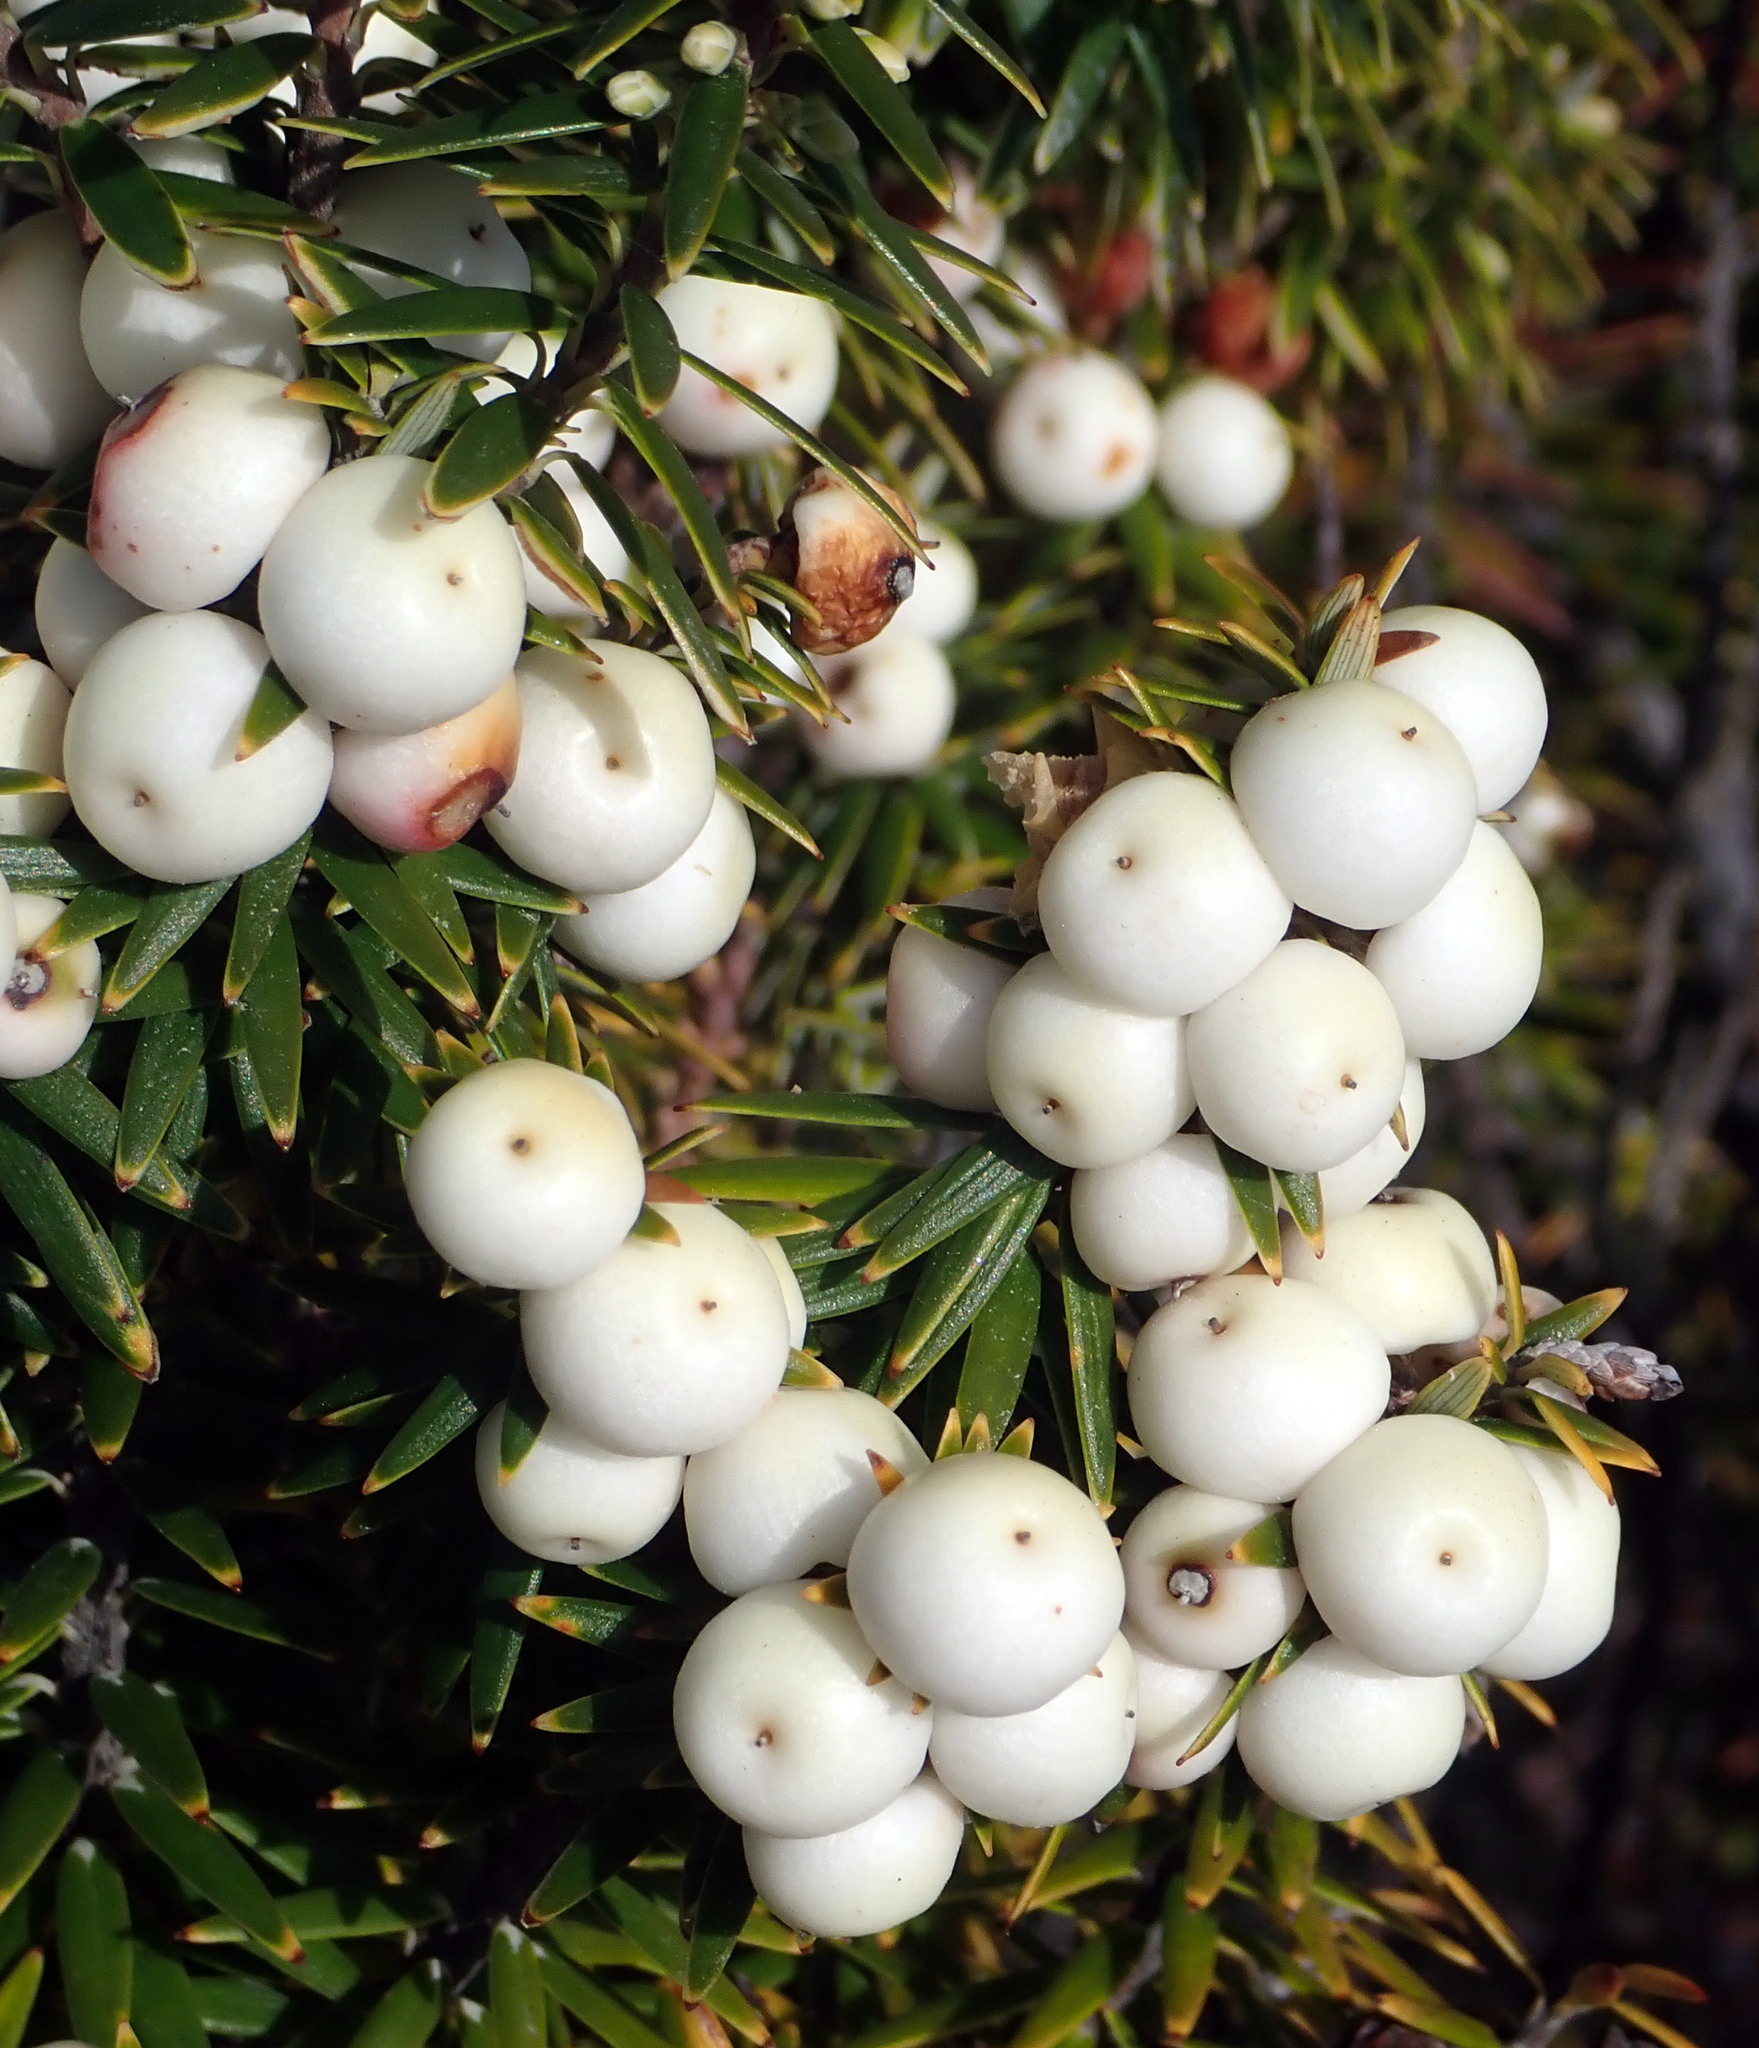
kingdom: Plantae
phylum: Tracheophyta
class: Magnoliopsida
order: Ericales
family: Ericaceae
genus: Leptecophylla
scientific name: Leptecophylla robusta
